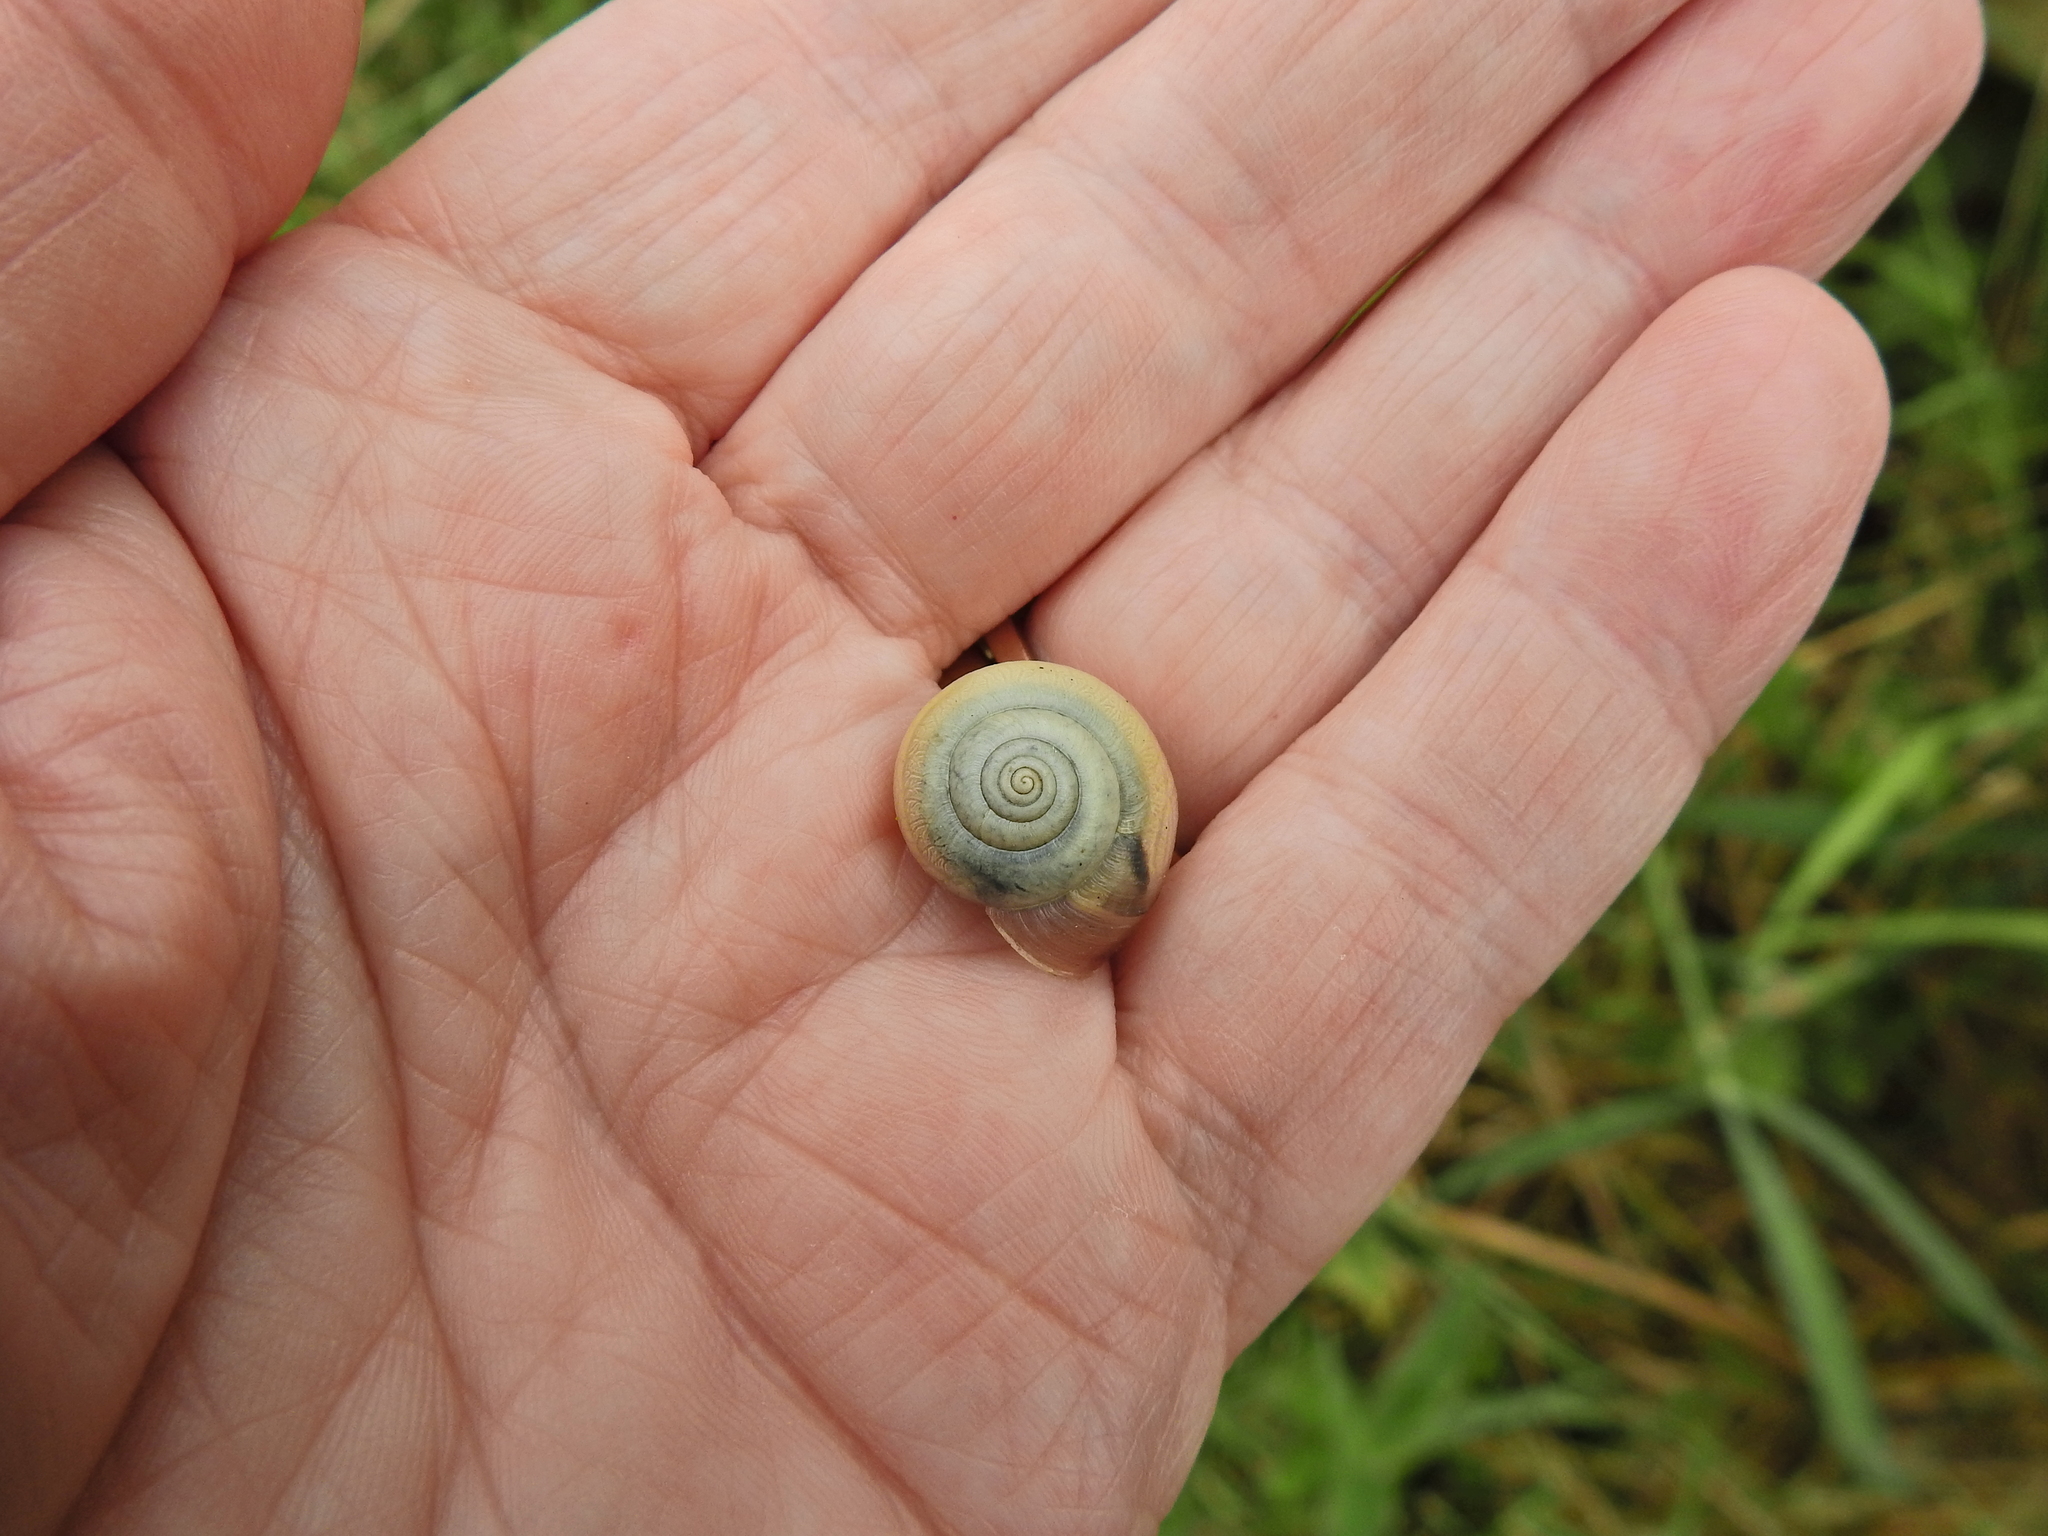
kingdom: Animalia
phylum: Mollusca
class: Gastropoda
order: Stylommatophora
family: Hygromiidae
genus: Monacha
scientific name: Monacha cantiana
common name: Kentish snail
